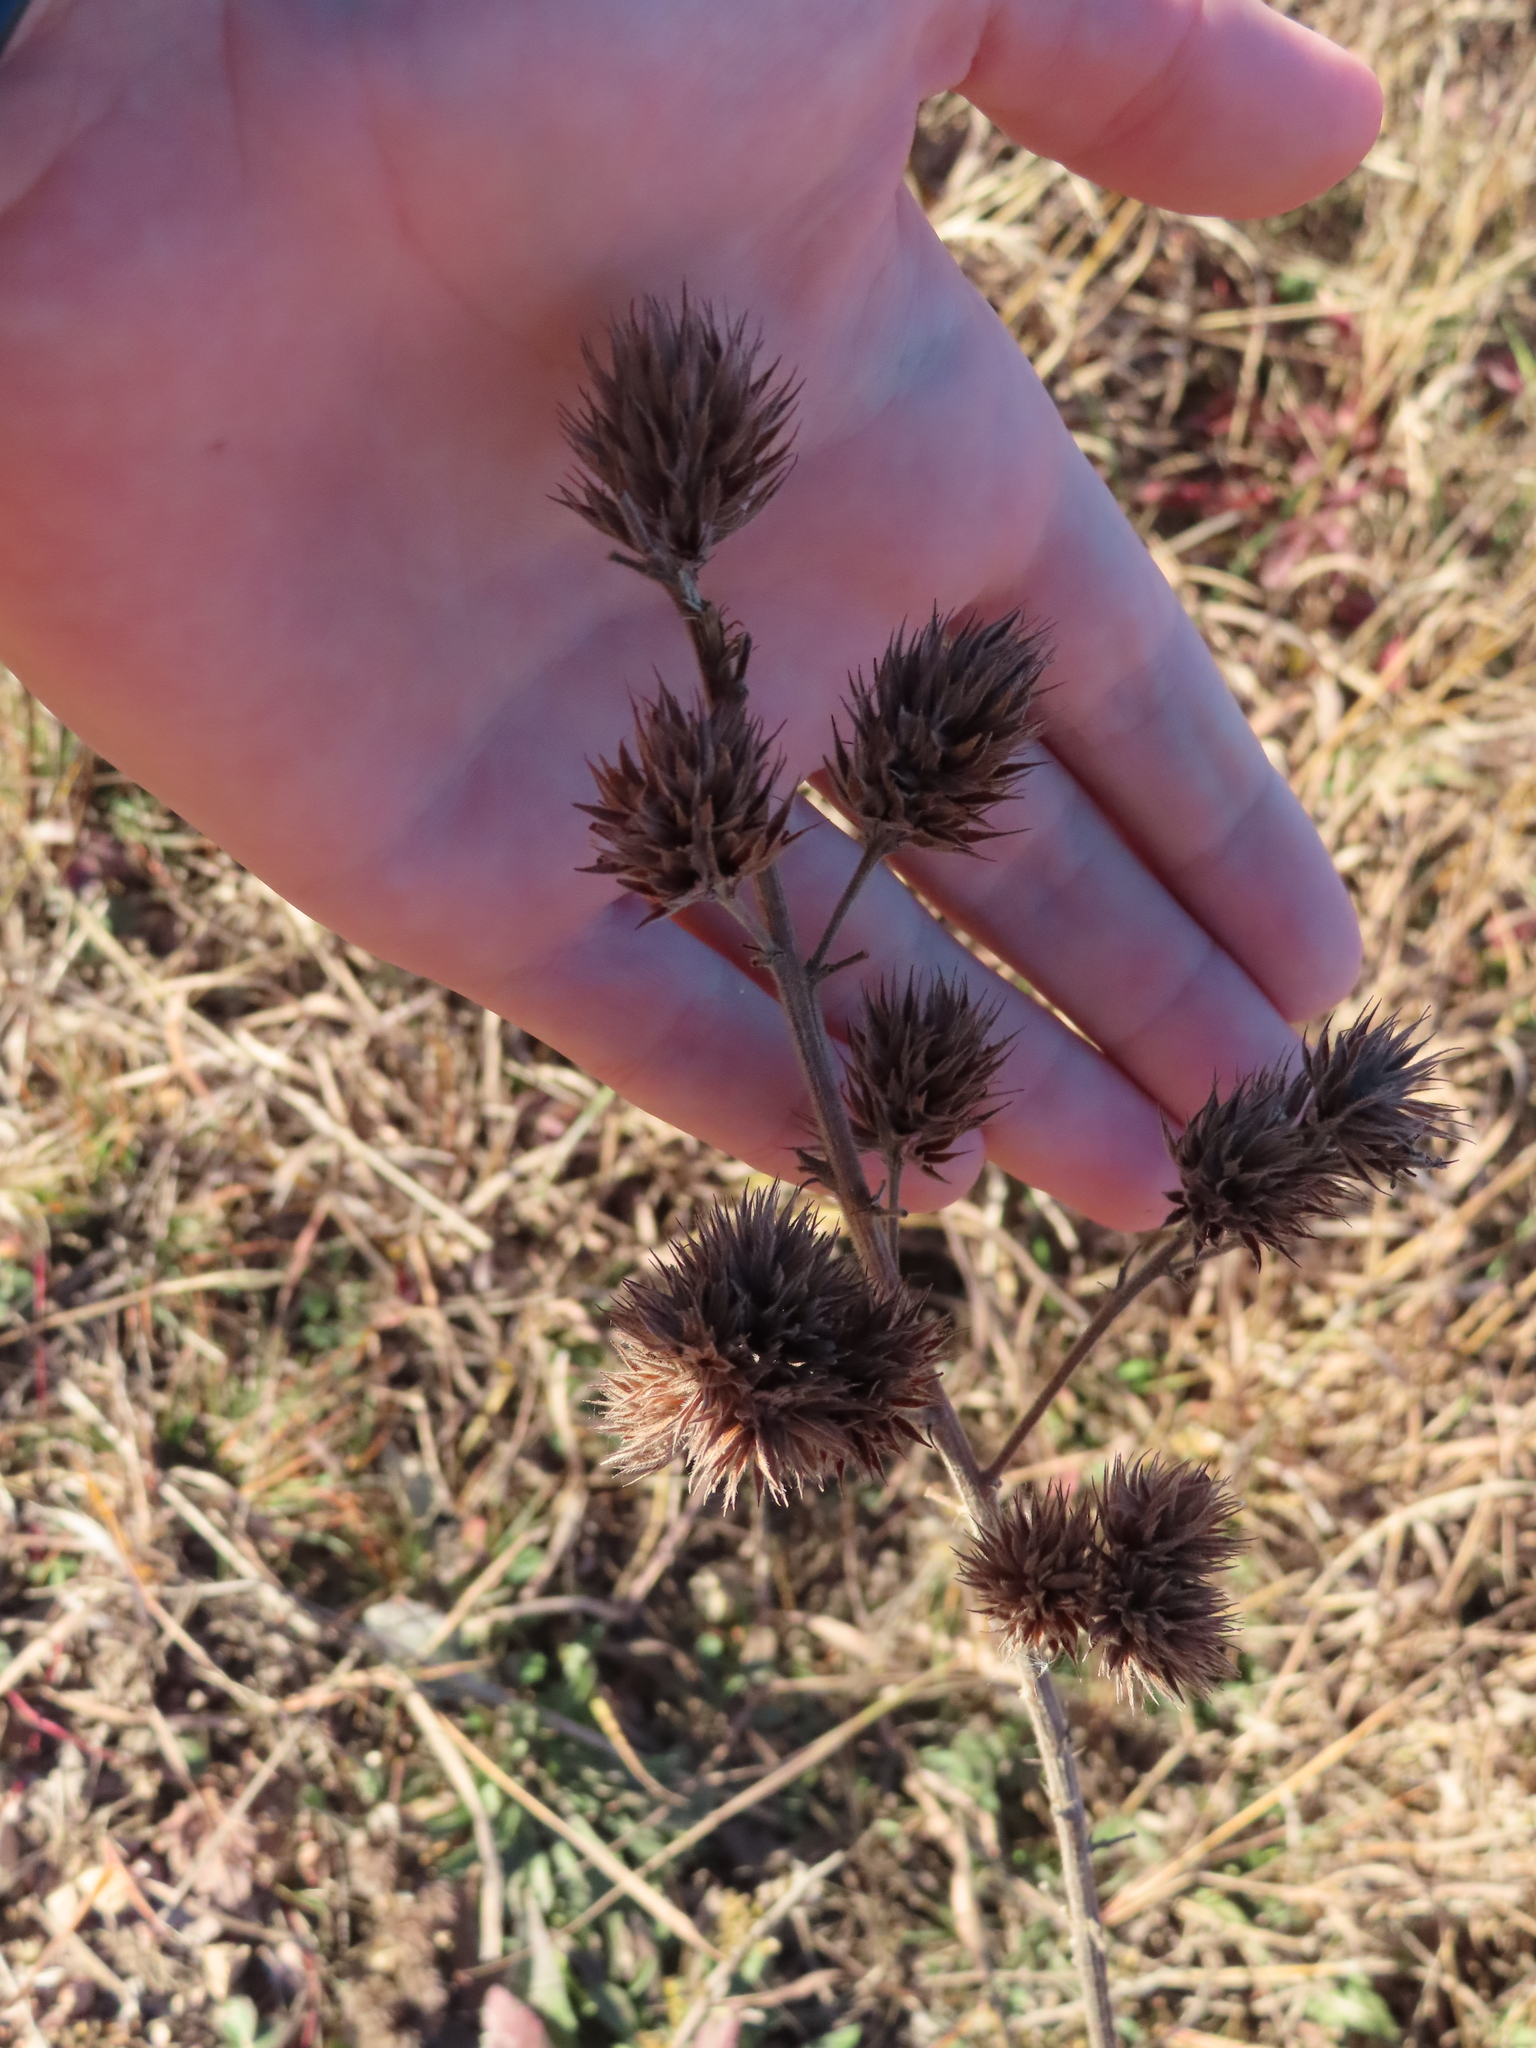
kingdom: Plantae
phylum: Tracheophyta
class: Magnoliopsida
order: Fabales
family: Fabaceae
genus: Lespedeza
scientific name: Lespedeza capitata
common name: Dusty clover
